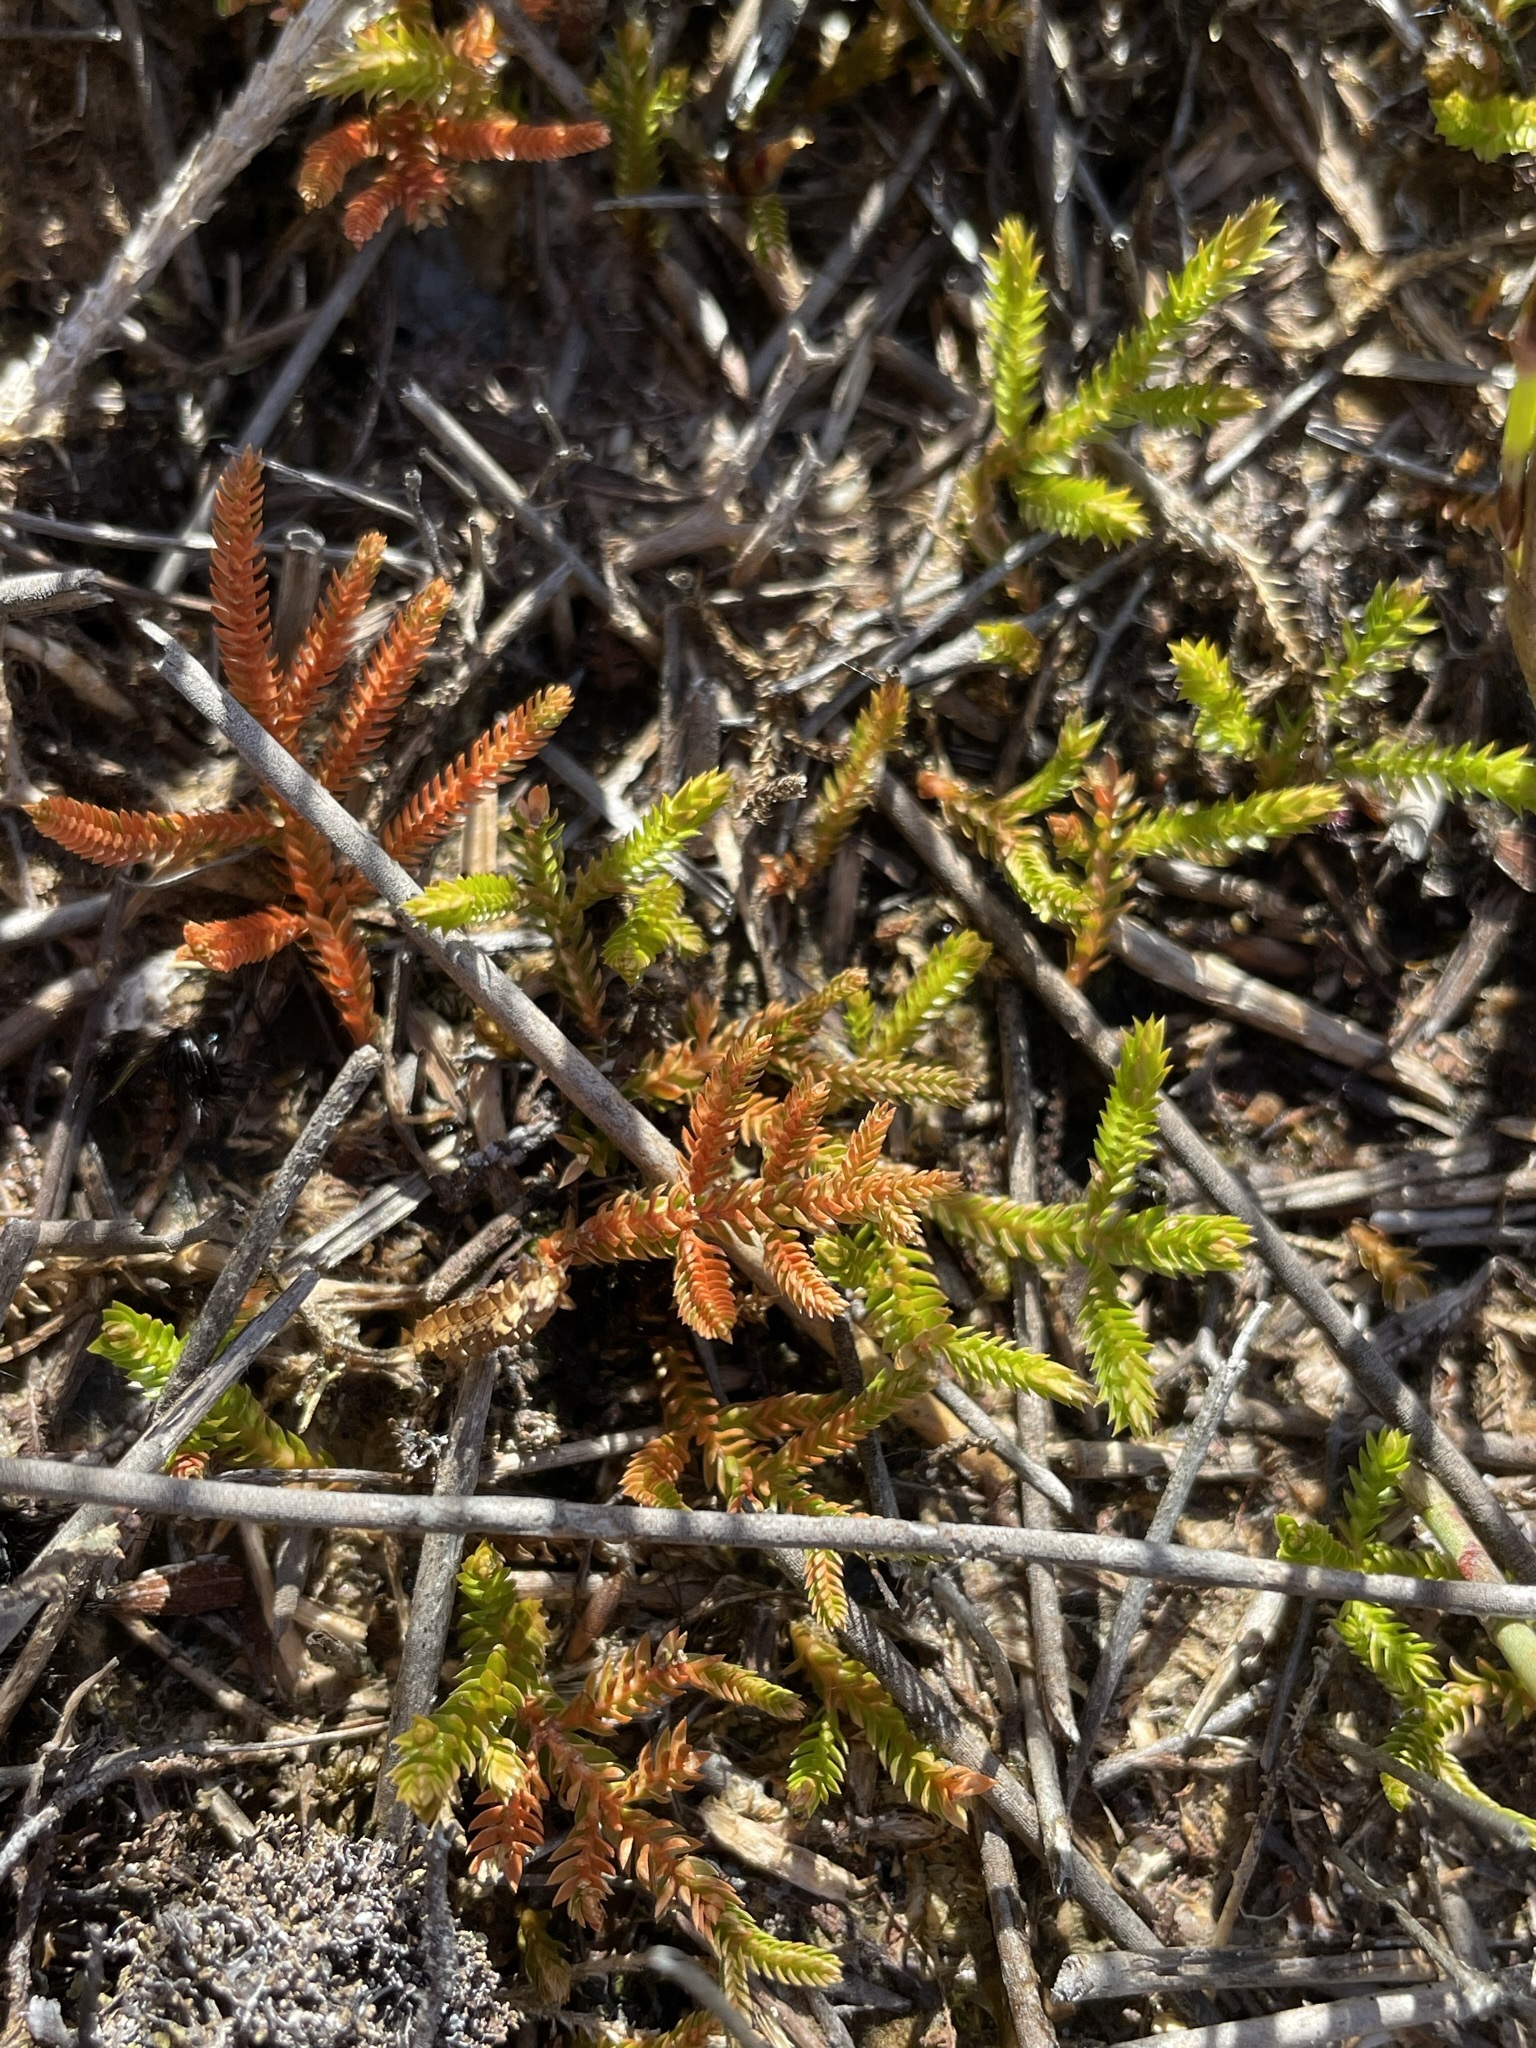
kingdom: Plantae
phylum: Tracheophyta
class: Lycopodiopsida
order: Selaginellales
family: Selaginellaceae
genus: Selaginella
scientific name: Selaginella uliginosa
